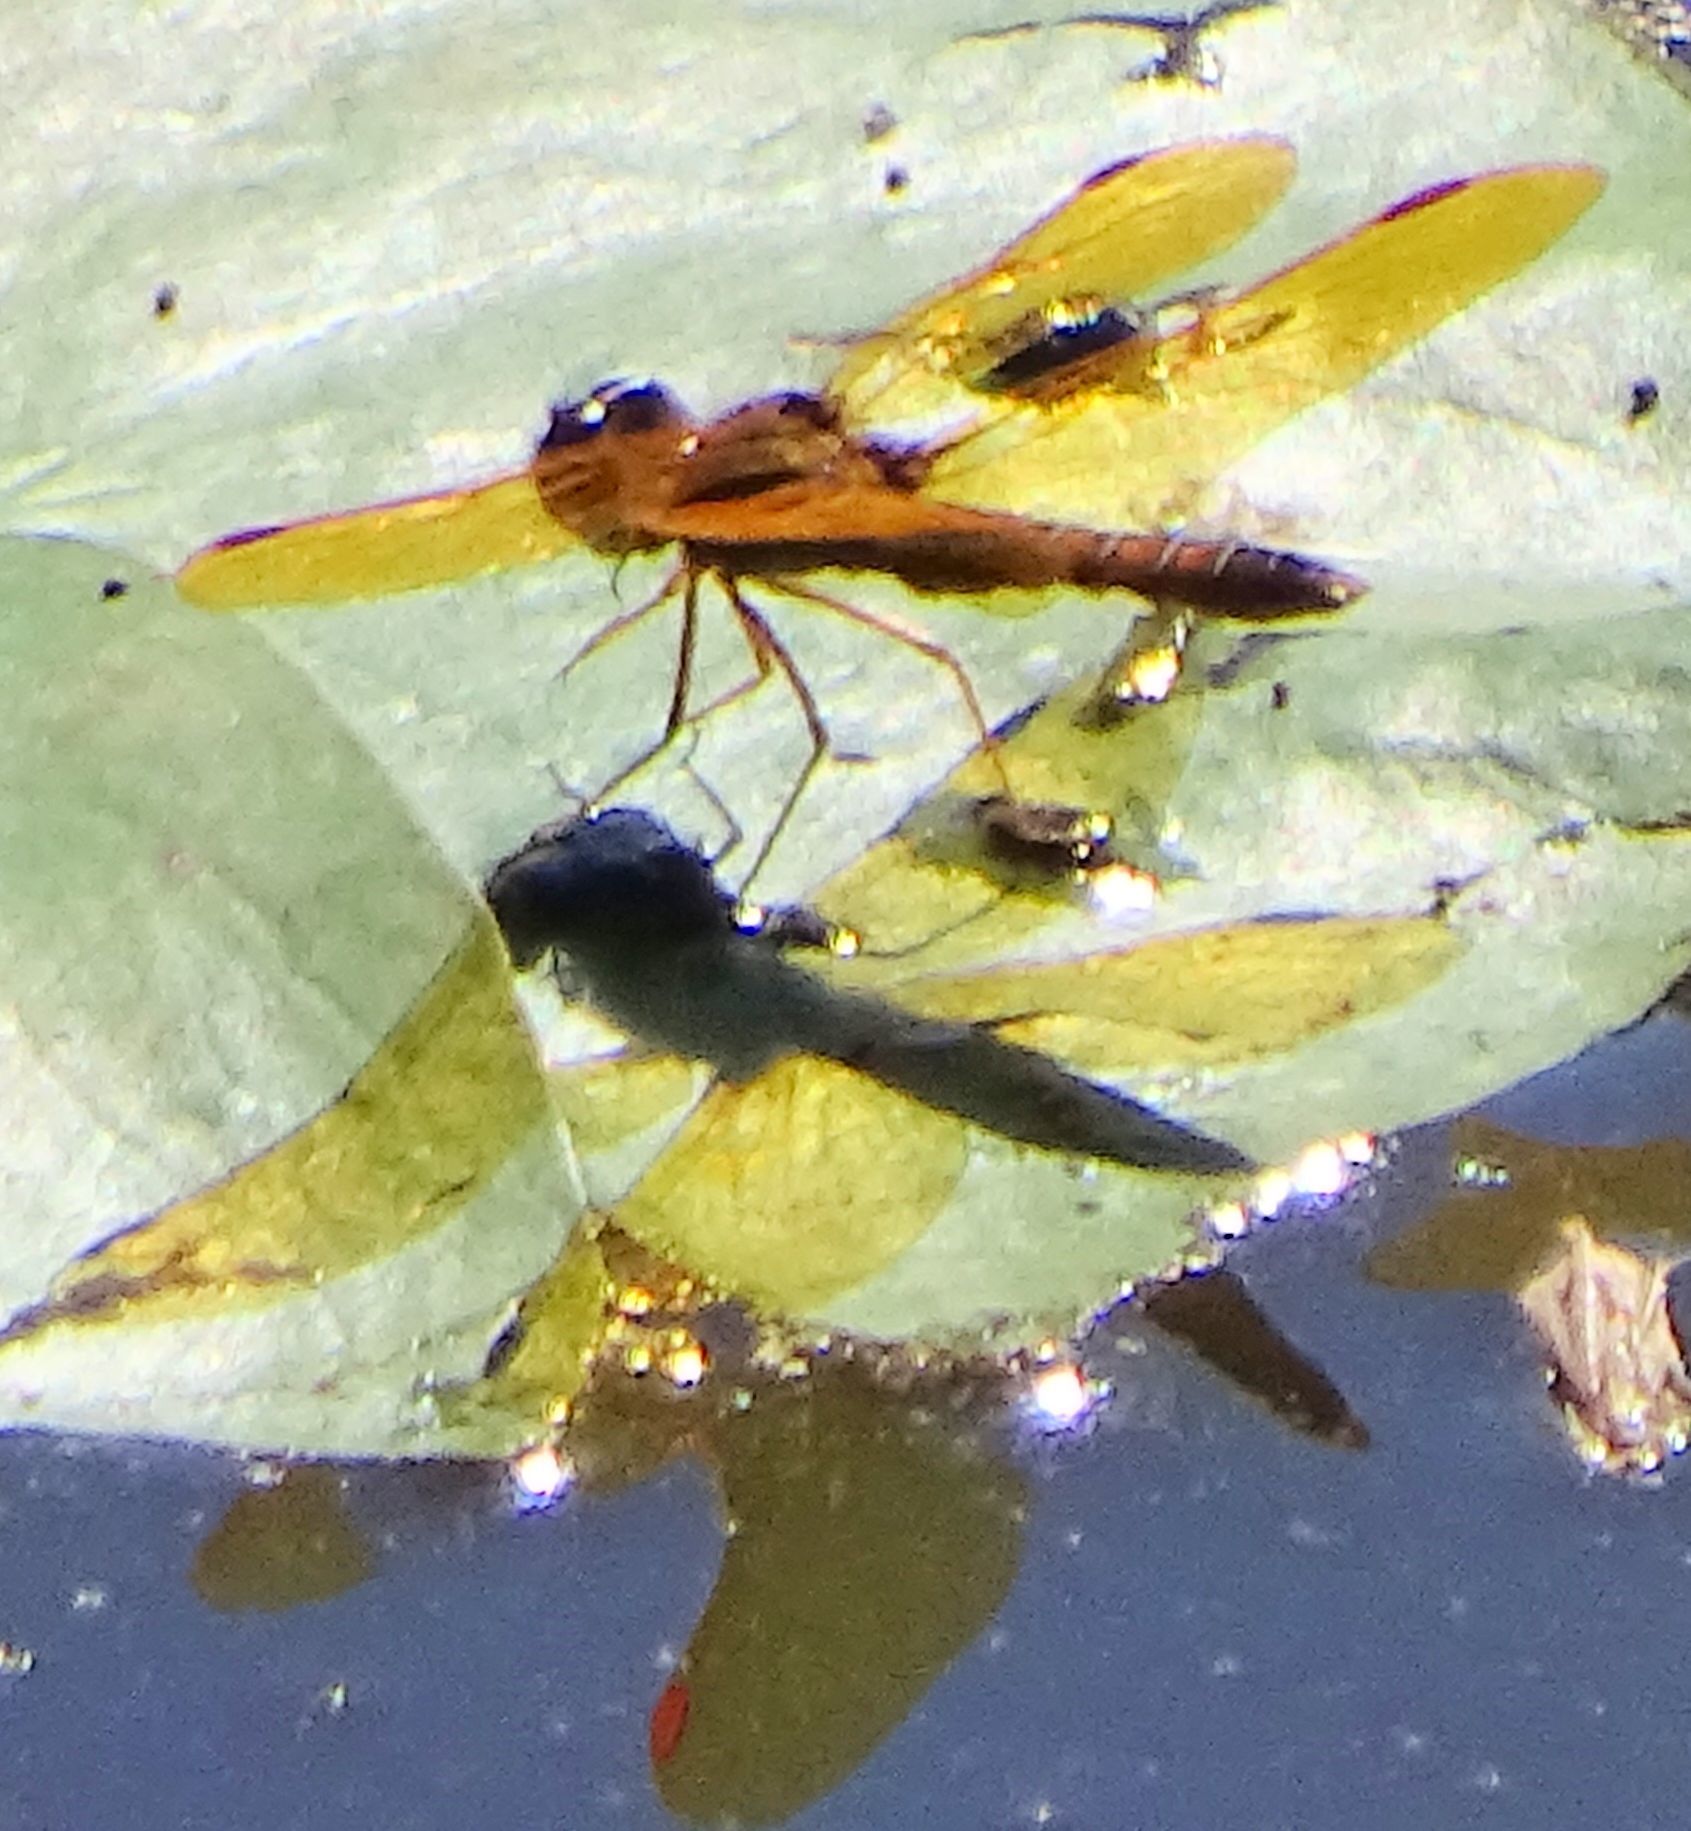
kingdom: Animalia
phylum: Arthropoda
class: Insecta
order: Odonata
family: Libellulidae
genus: Perithemis
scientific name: Perithemis tenera
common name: Eastern amberwing
